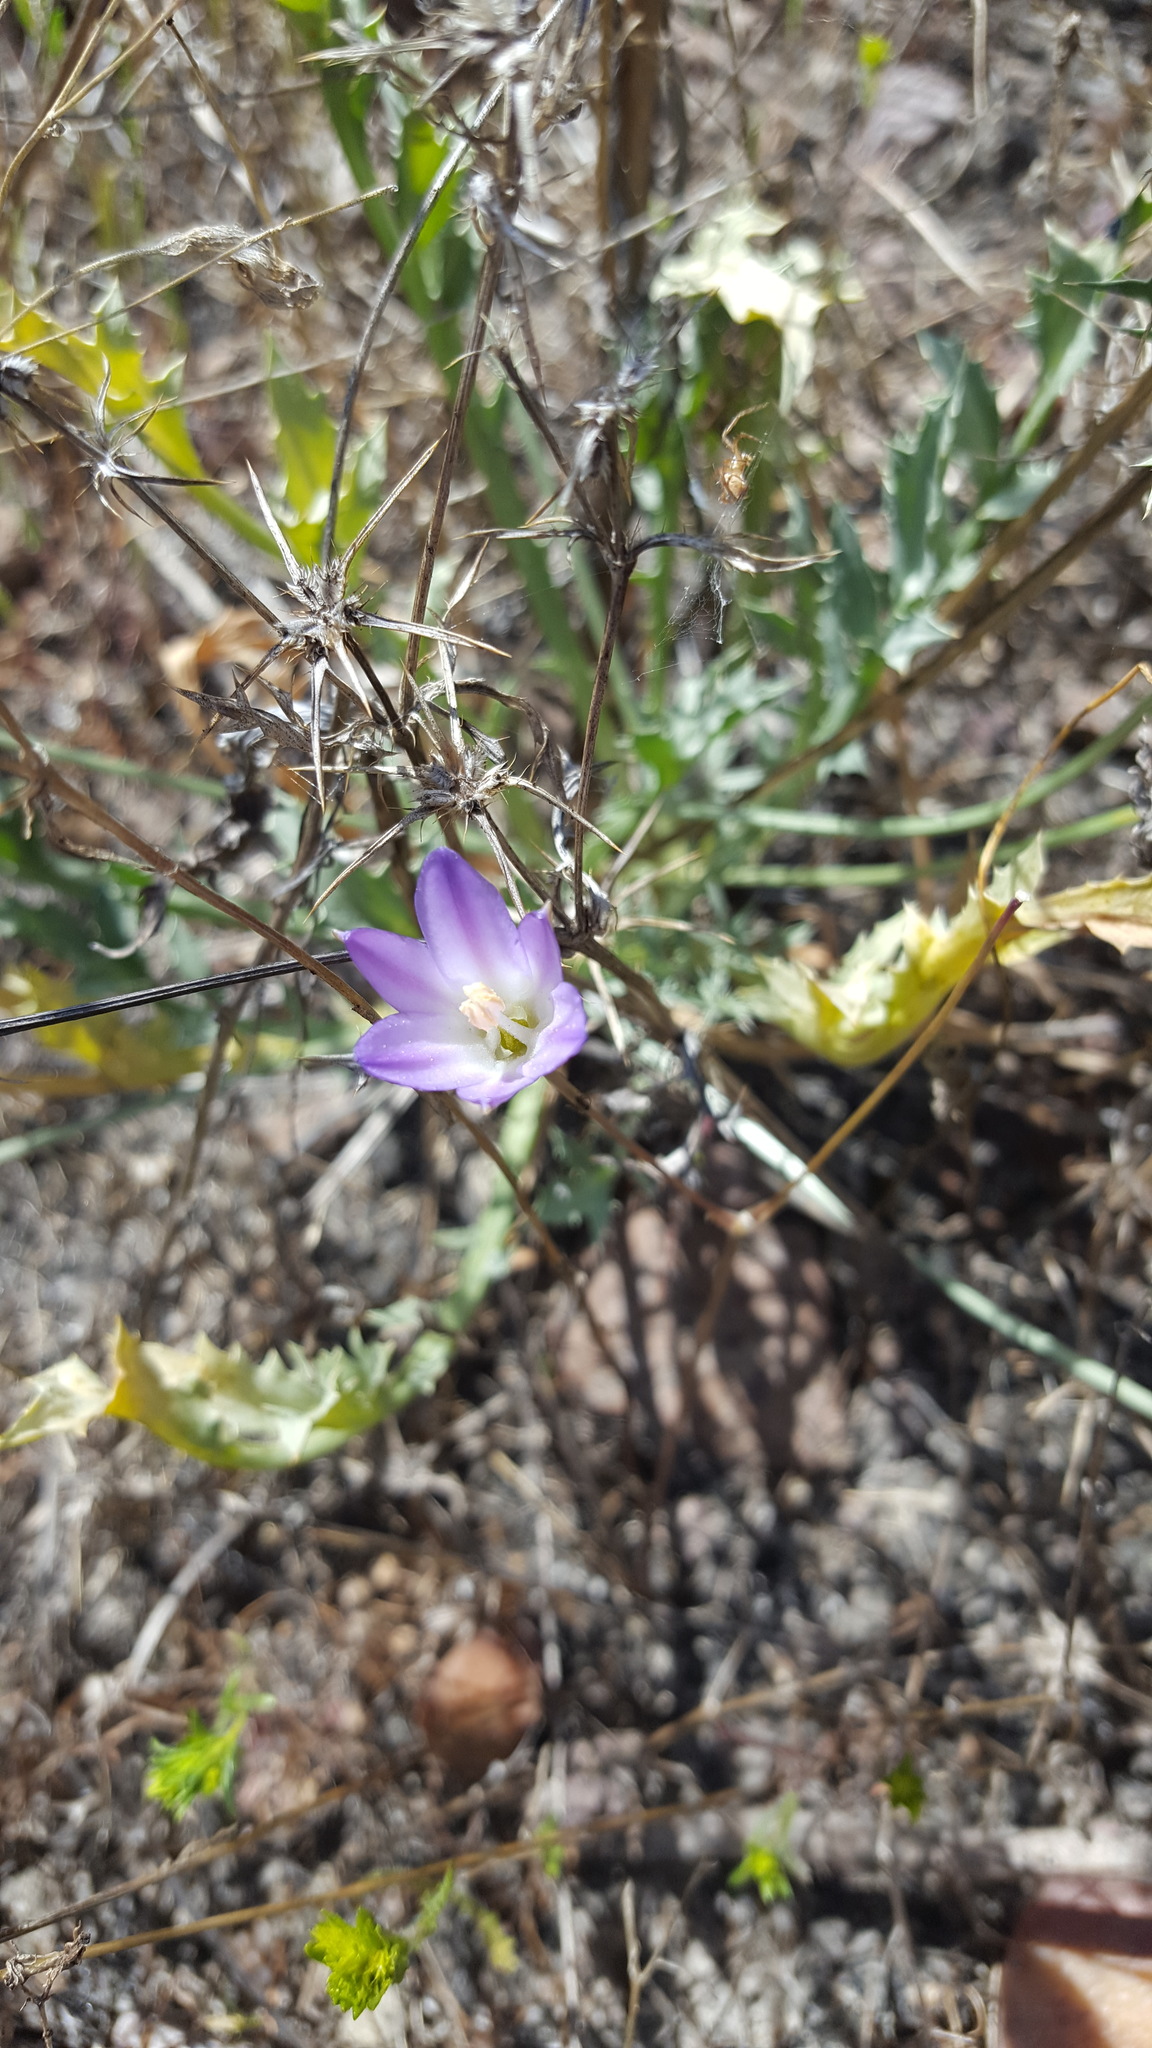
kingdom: Plantae
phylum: Tracheophyta
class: Liliopsida
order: Asparagales
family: Asparagaceae
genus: Brodiaea
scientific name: Brodiaea orcuttii
